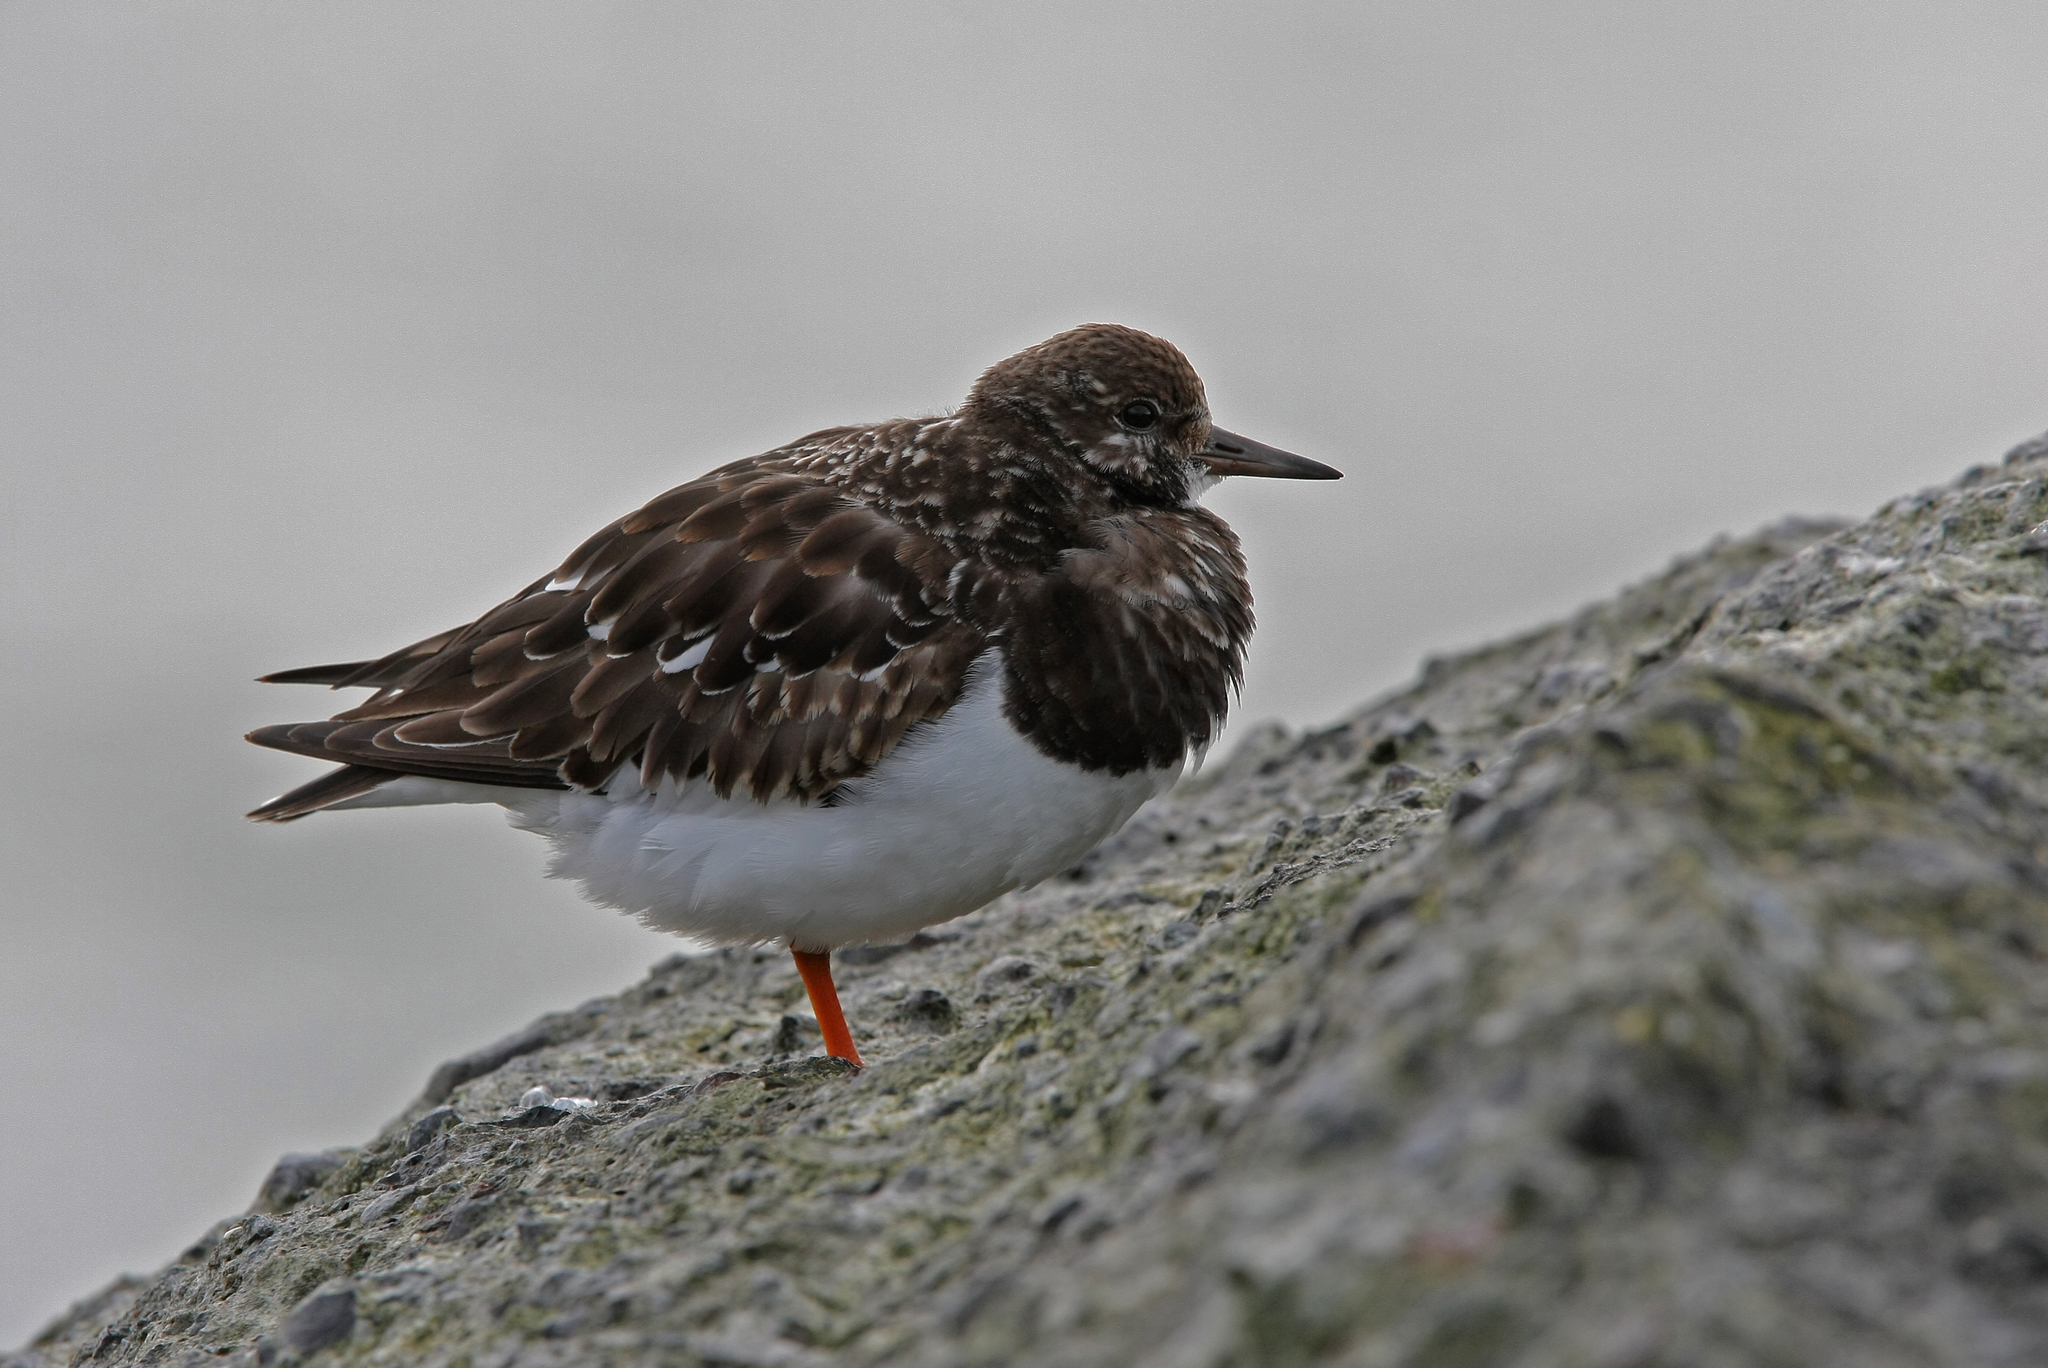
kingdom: Animalia
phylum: Chordata
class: Aves
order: Charadriiformes
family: Scolopacidae
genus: Arenaria
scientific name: Arenaria interpres
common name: Ruddy turnstone
